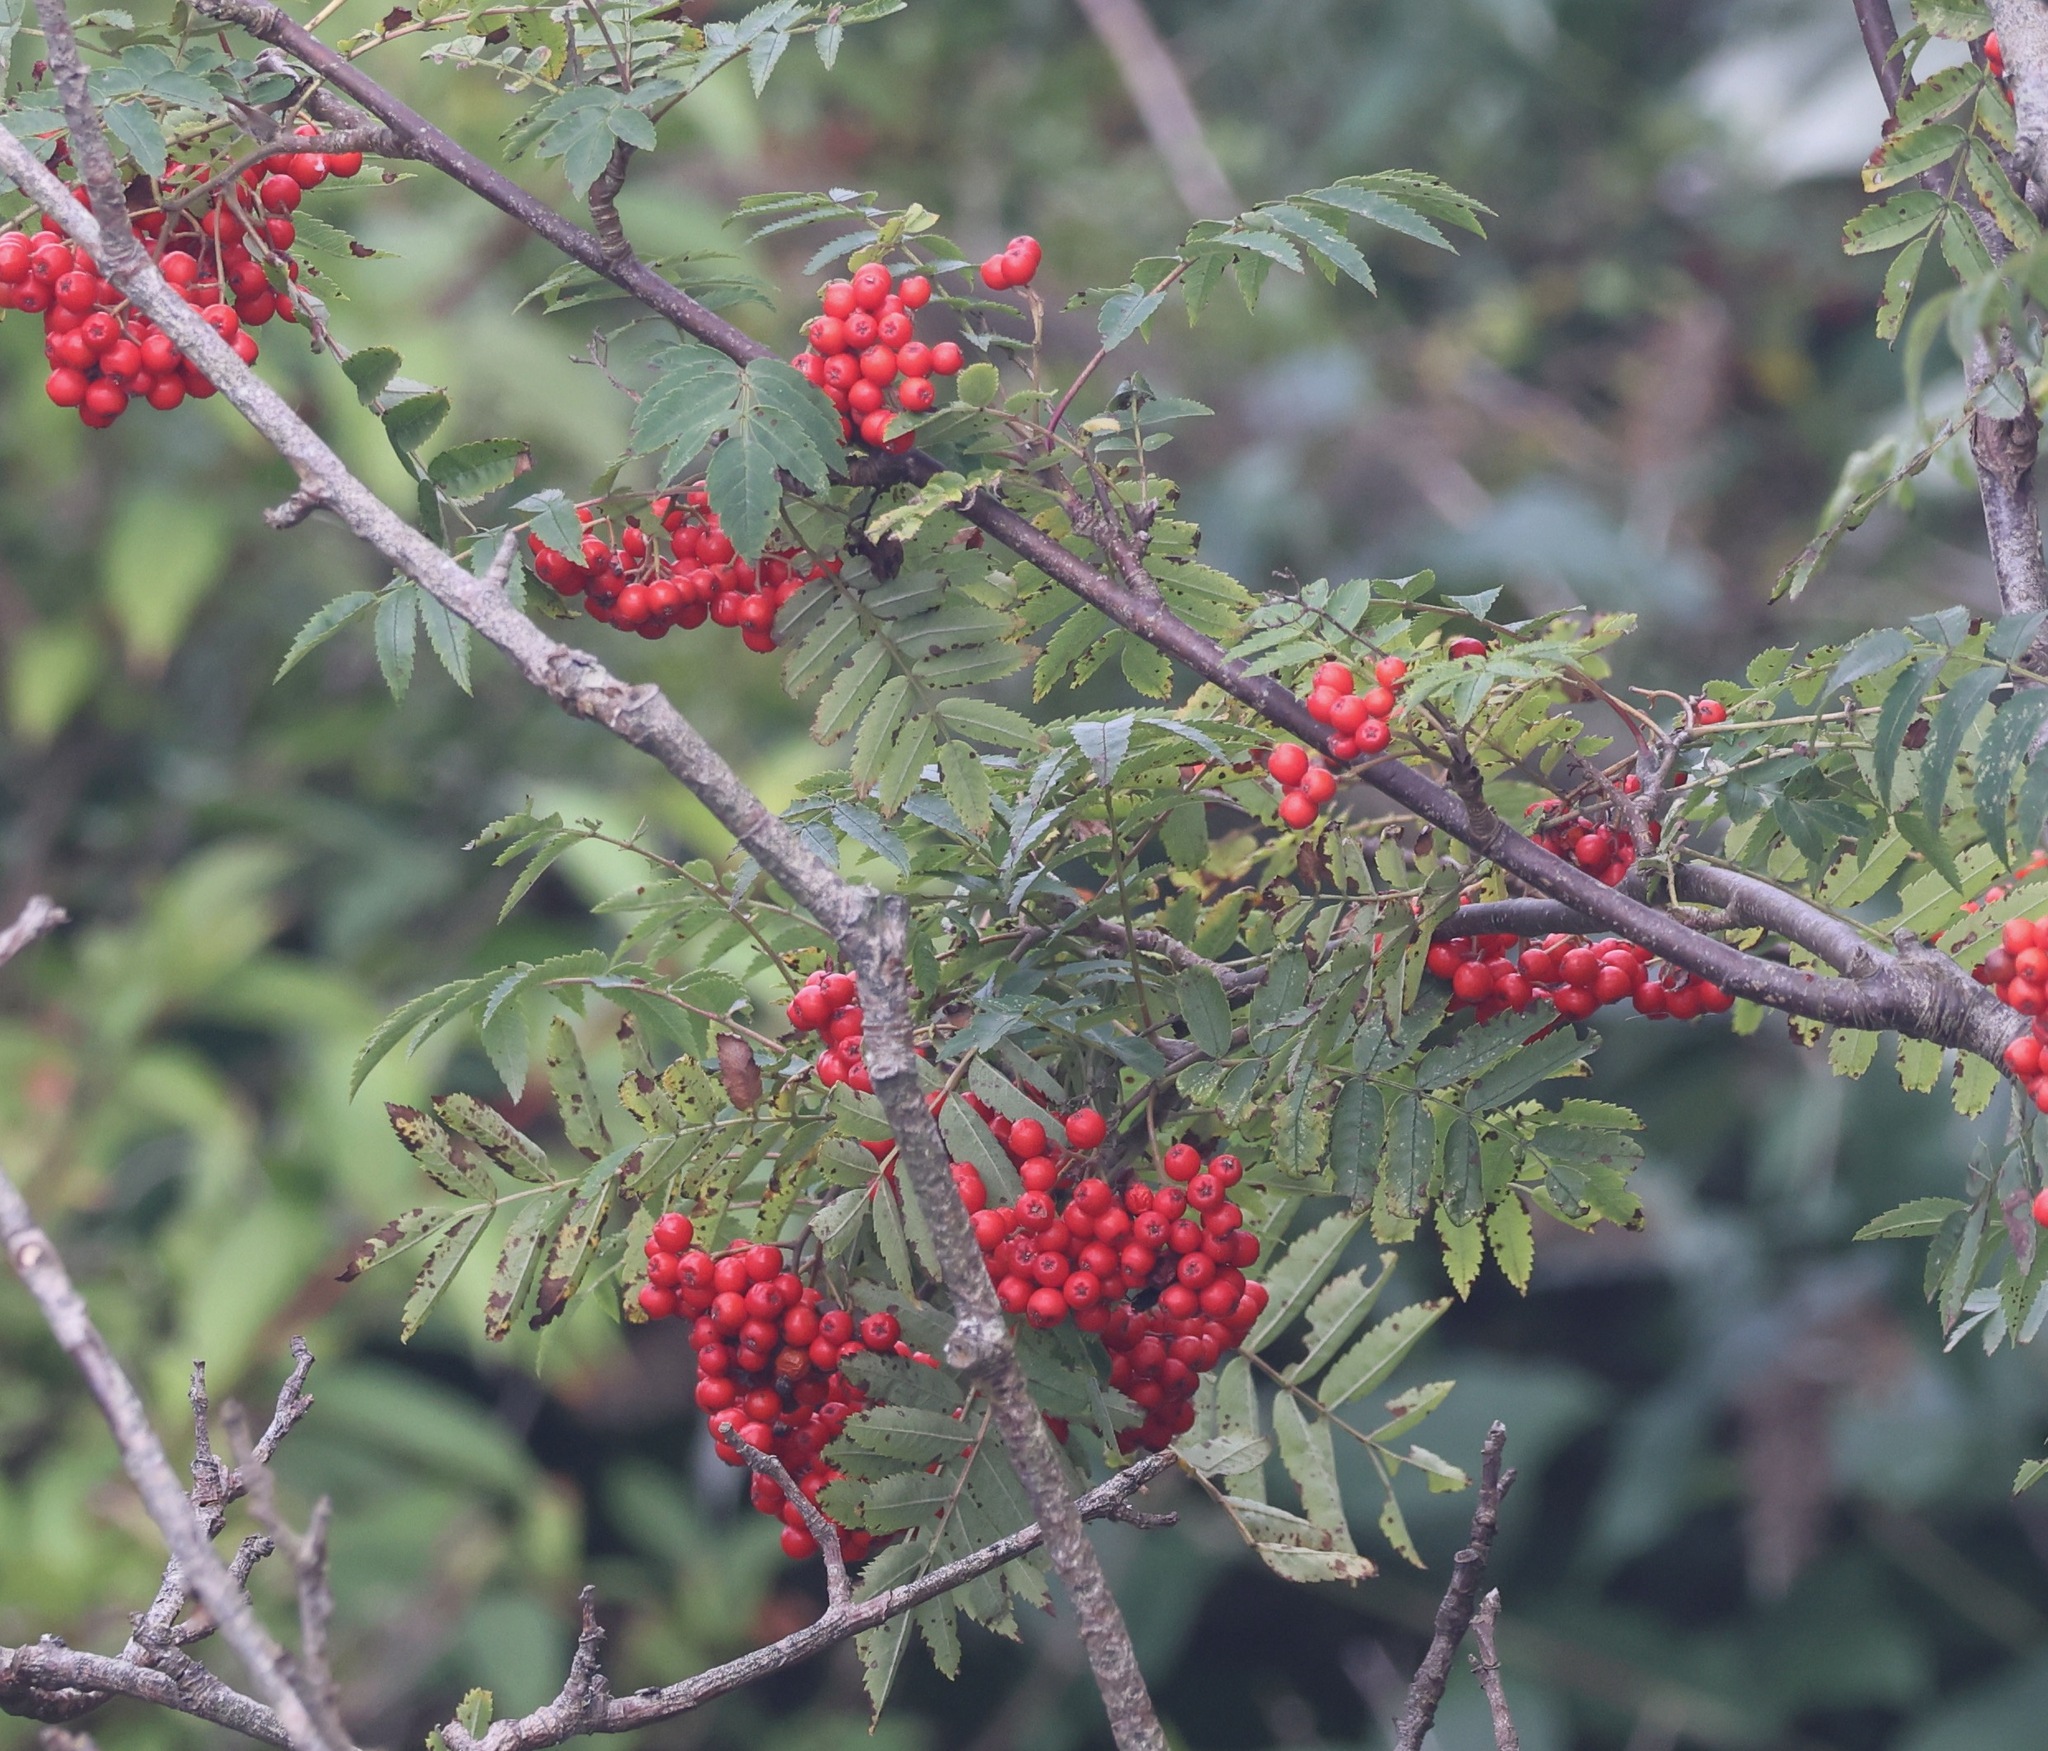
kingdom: Plantae
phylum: Tracheophyta
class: Magnoliopsida
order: Rosales
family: Rosaceae
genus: Sorbus
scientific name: Sorbus aucuparia
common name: Rowan
